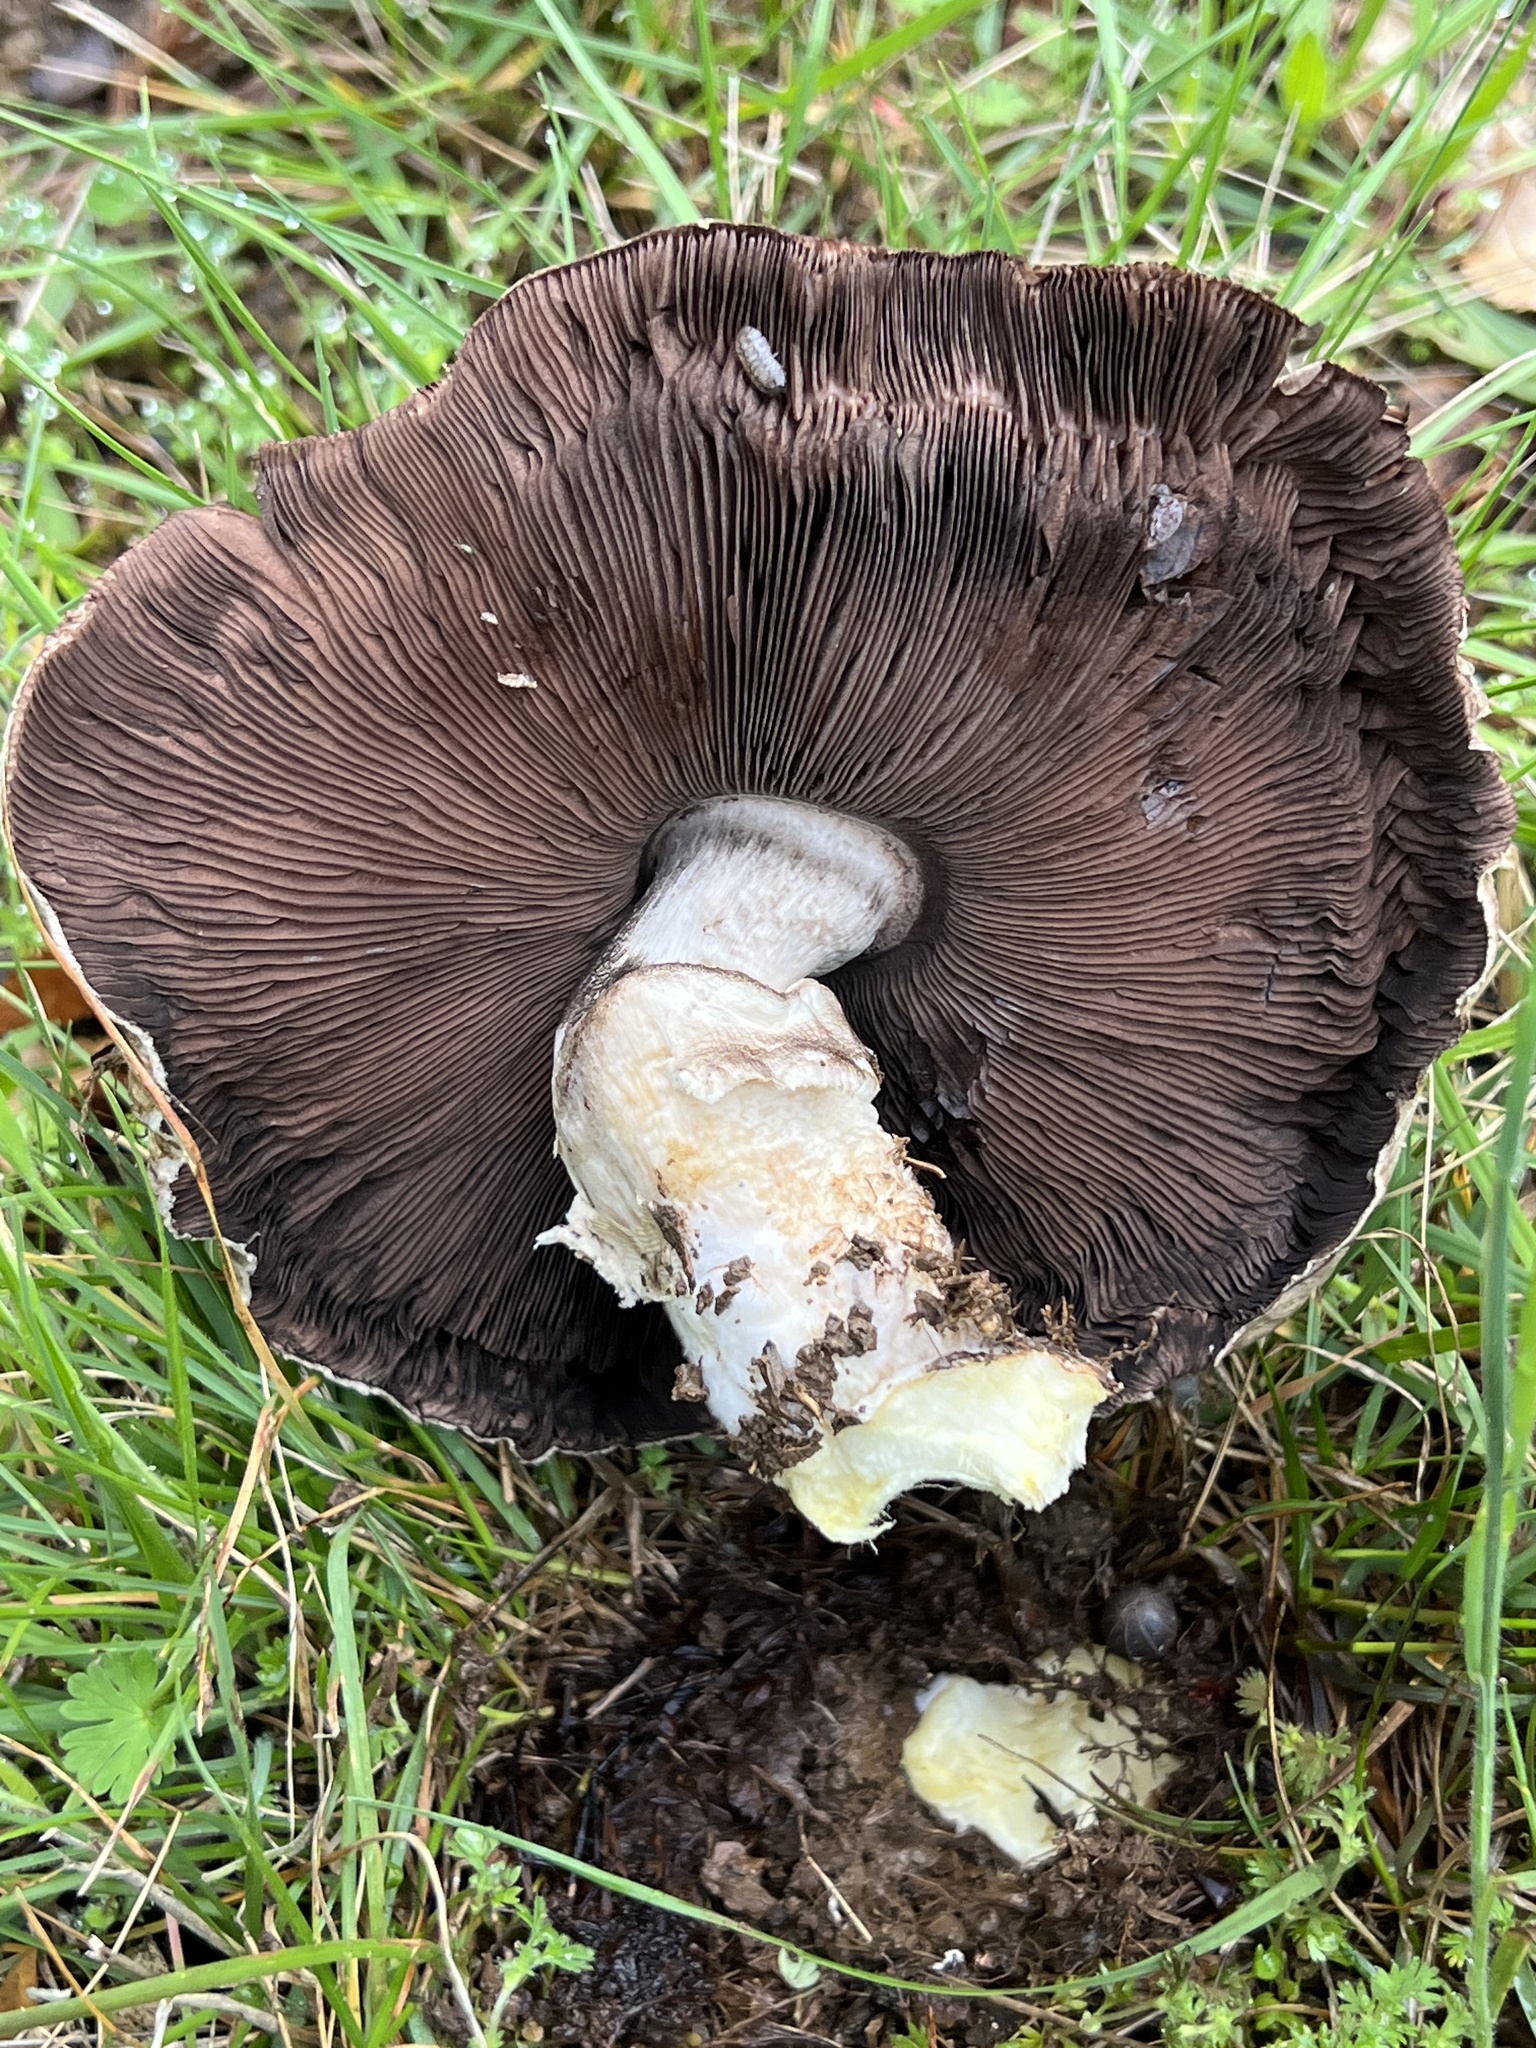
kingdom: Fungi
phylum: Basidiomycota
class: Agaricomycetes
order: Agaricales
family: Agaricaceae
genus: Agaricus
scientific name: Agaricus megalocarpus
